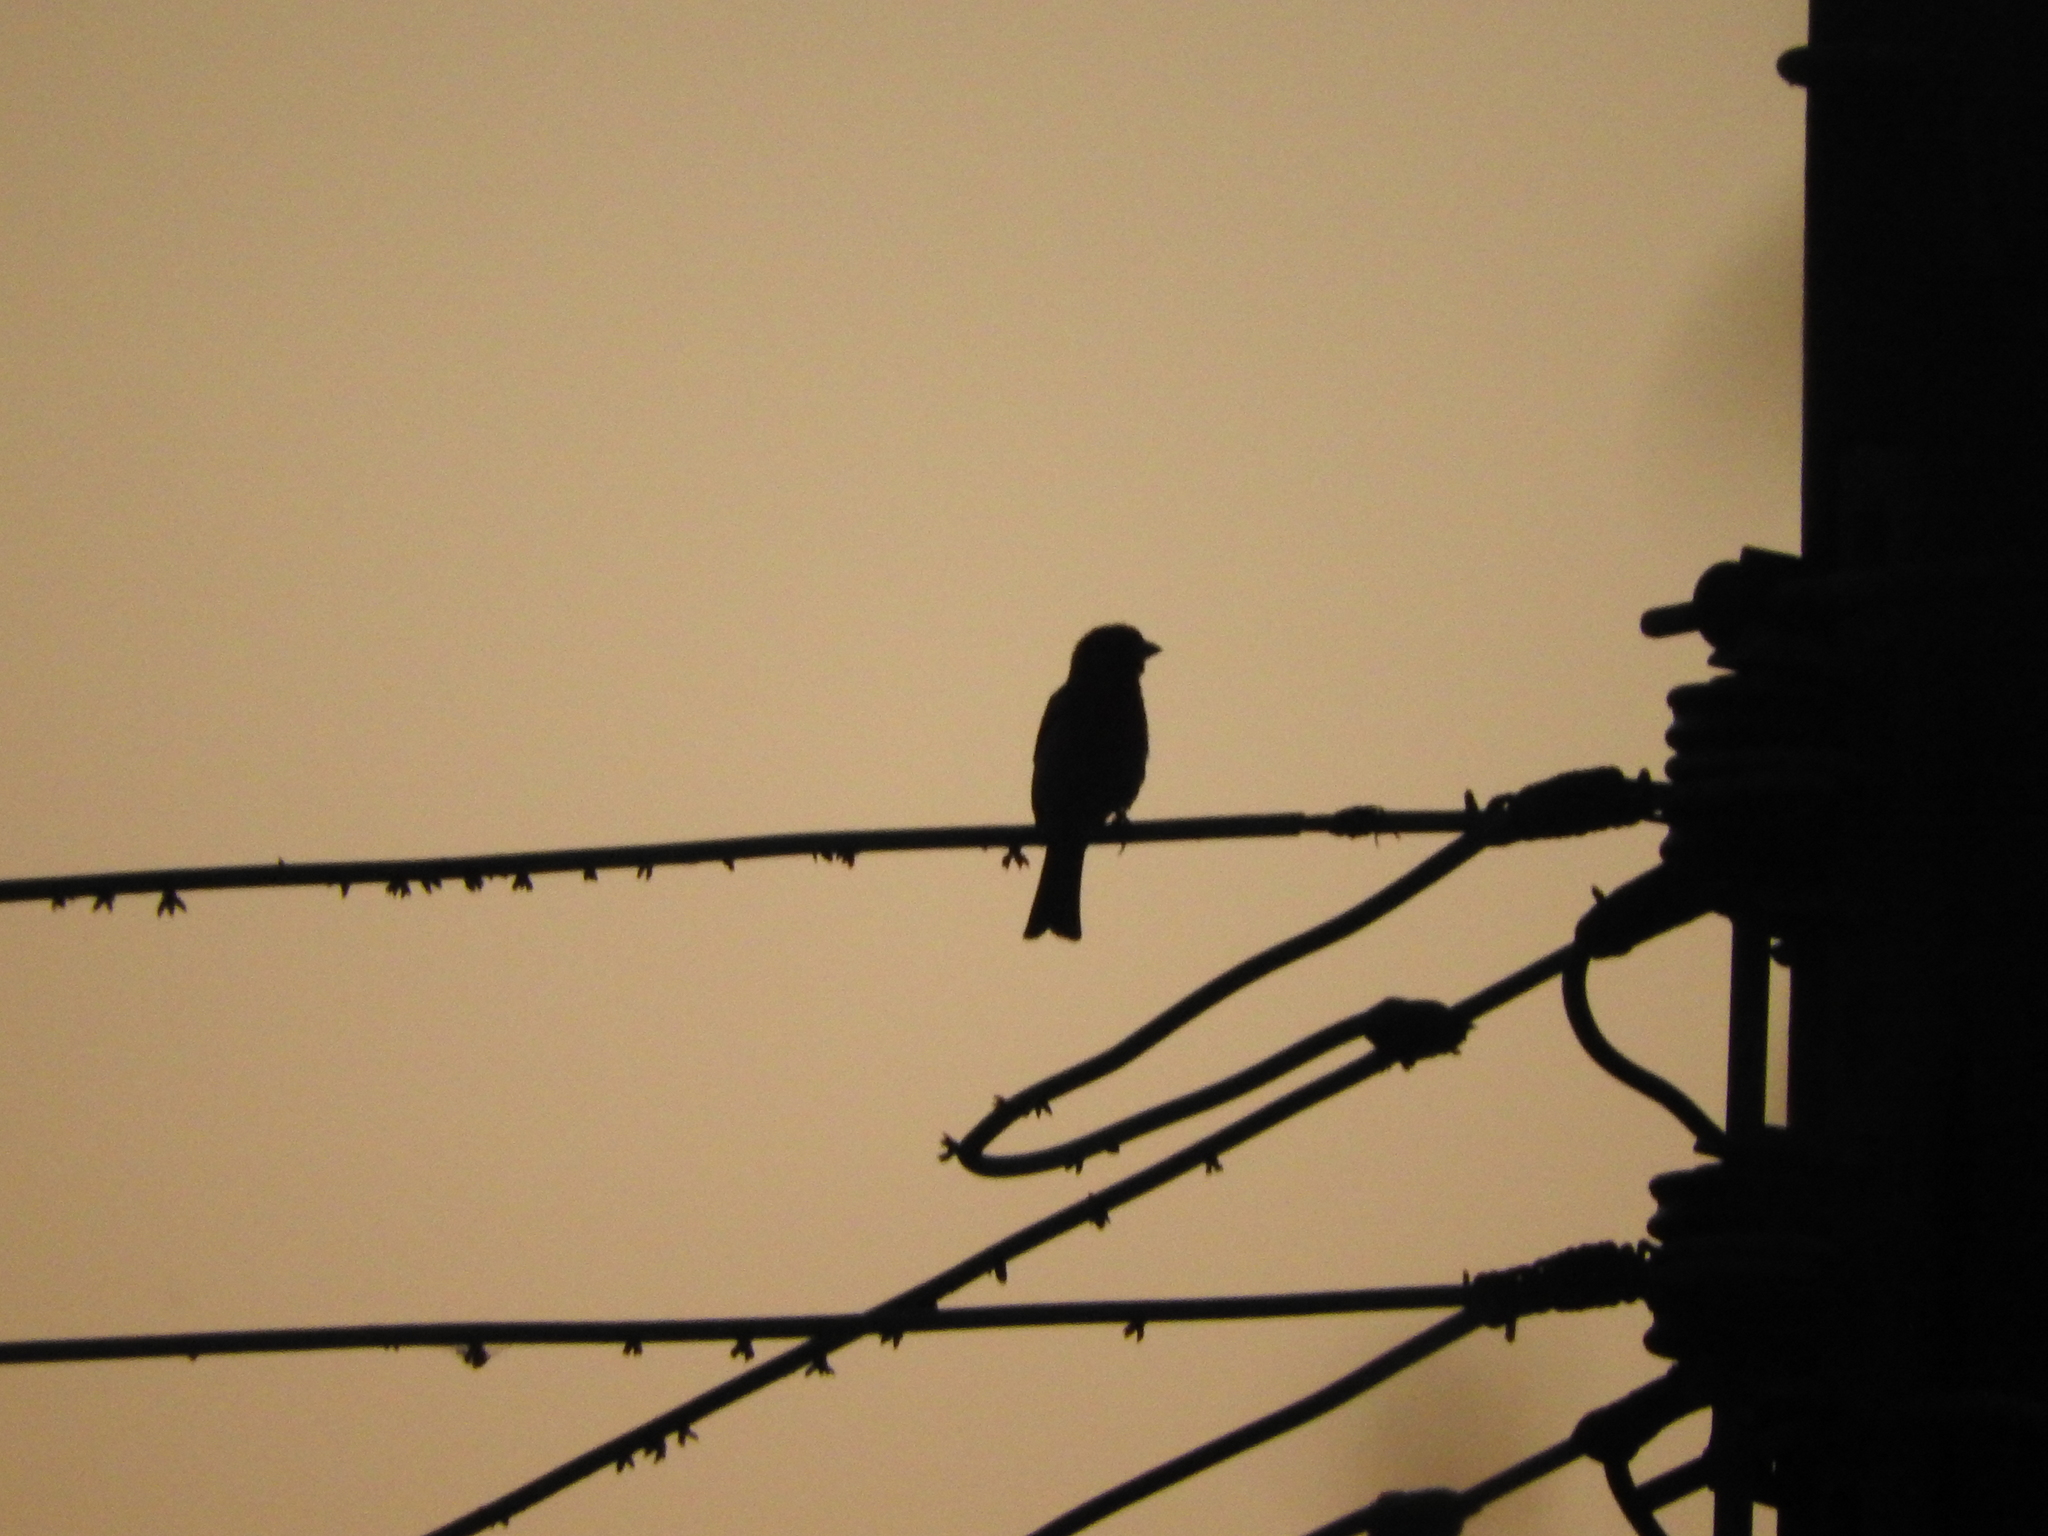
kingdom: Animalia
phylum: Chordata
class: Aves
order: Passeriformes
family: Fringillidae
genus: Haemorhous
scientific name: Haemorhous mexicanus
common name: House finch
